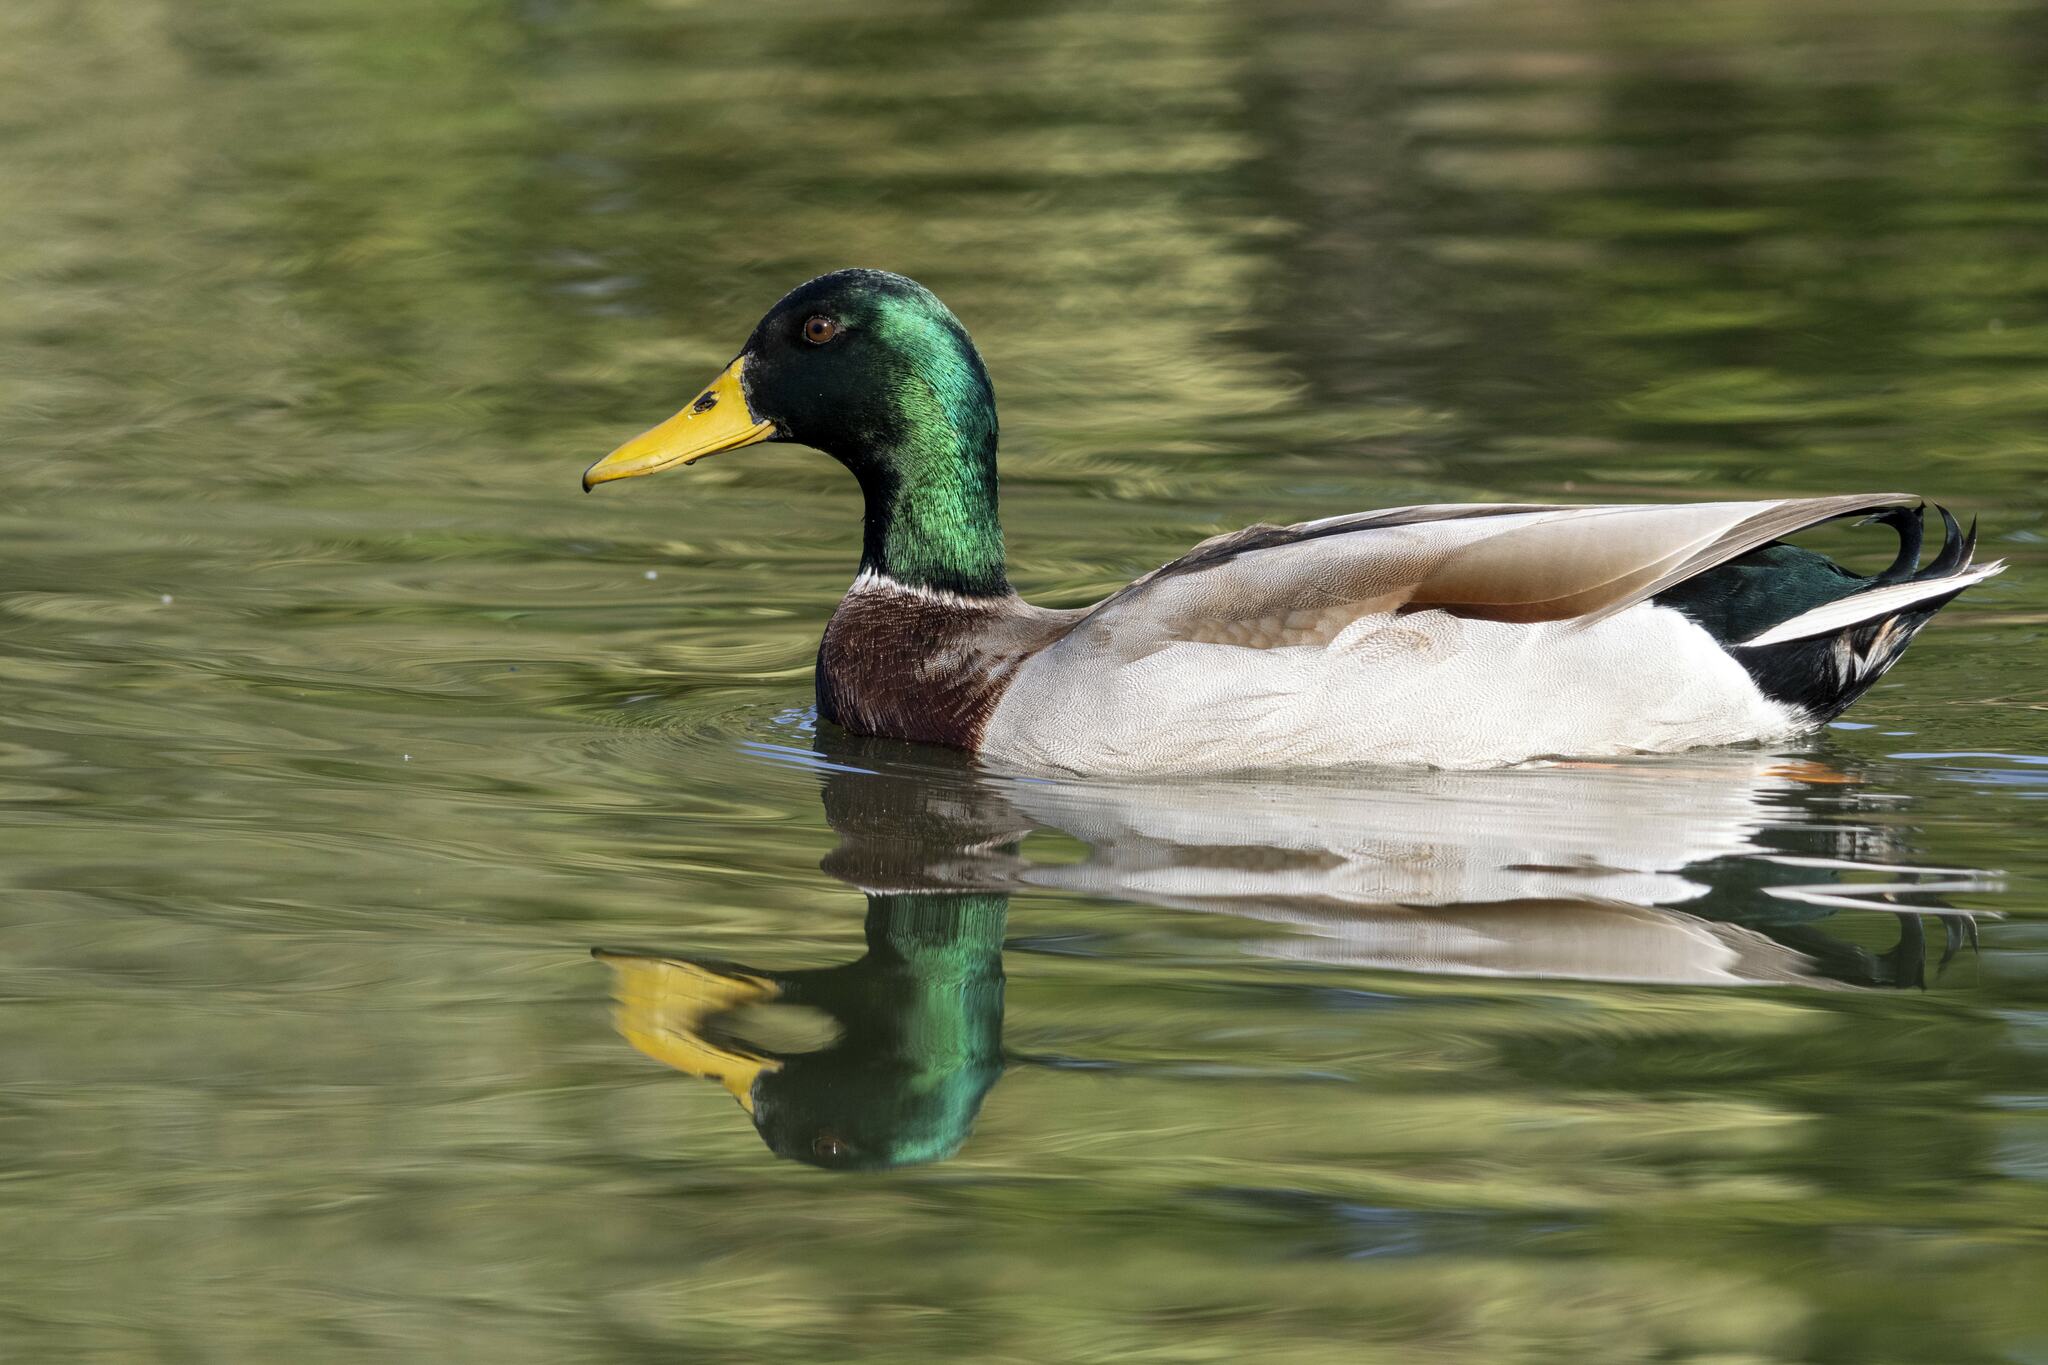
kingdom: Animalia
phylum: Chordata
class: Aves
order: Anseriformes
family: Anatidae
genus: Anas
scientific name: Anas platyrhynchos
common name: Mallard
